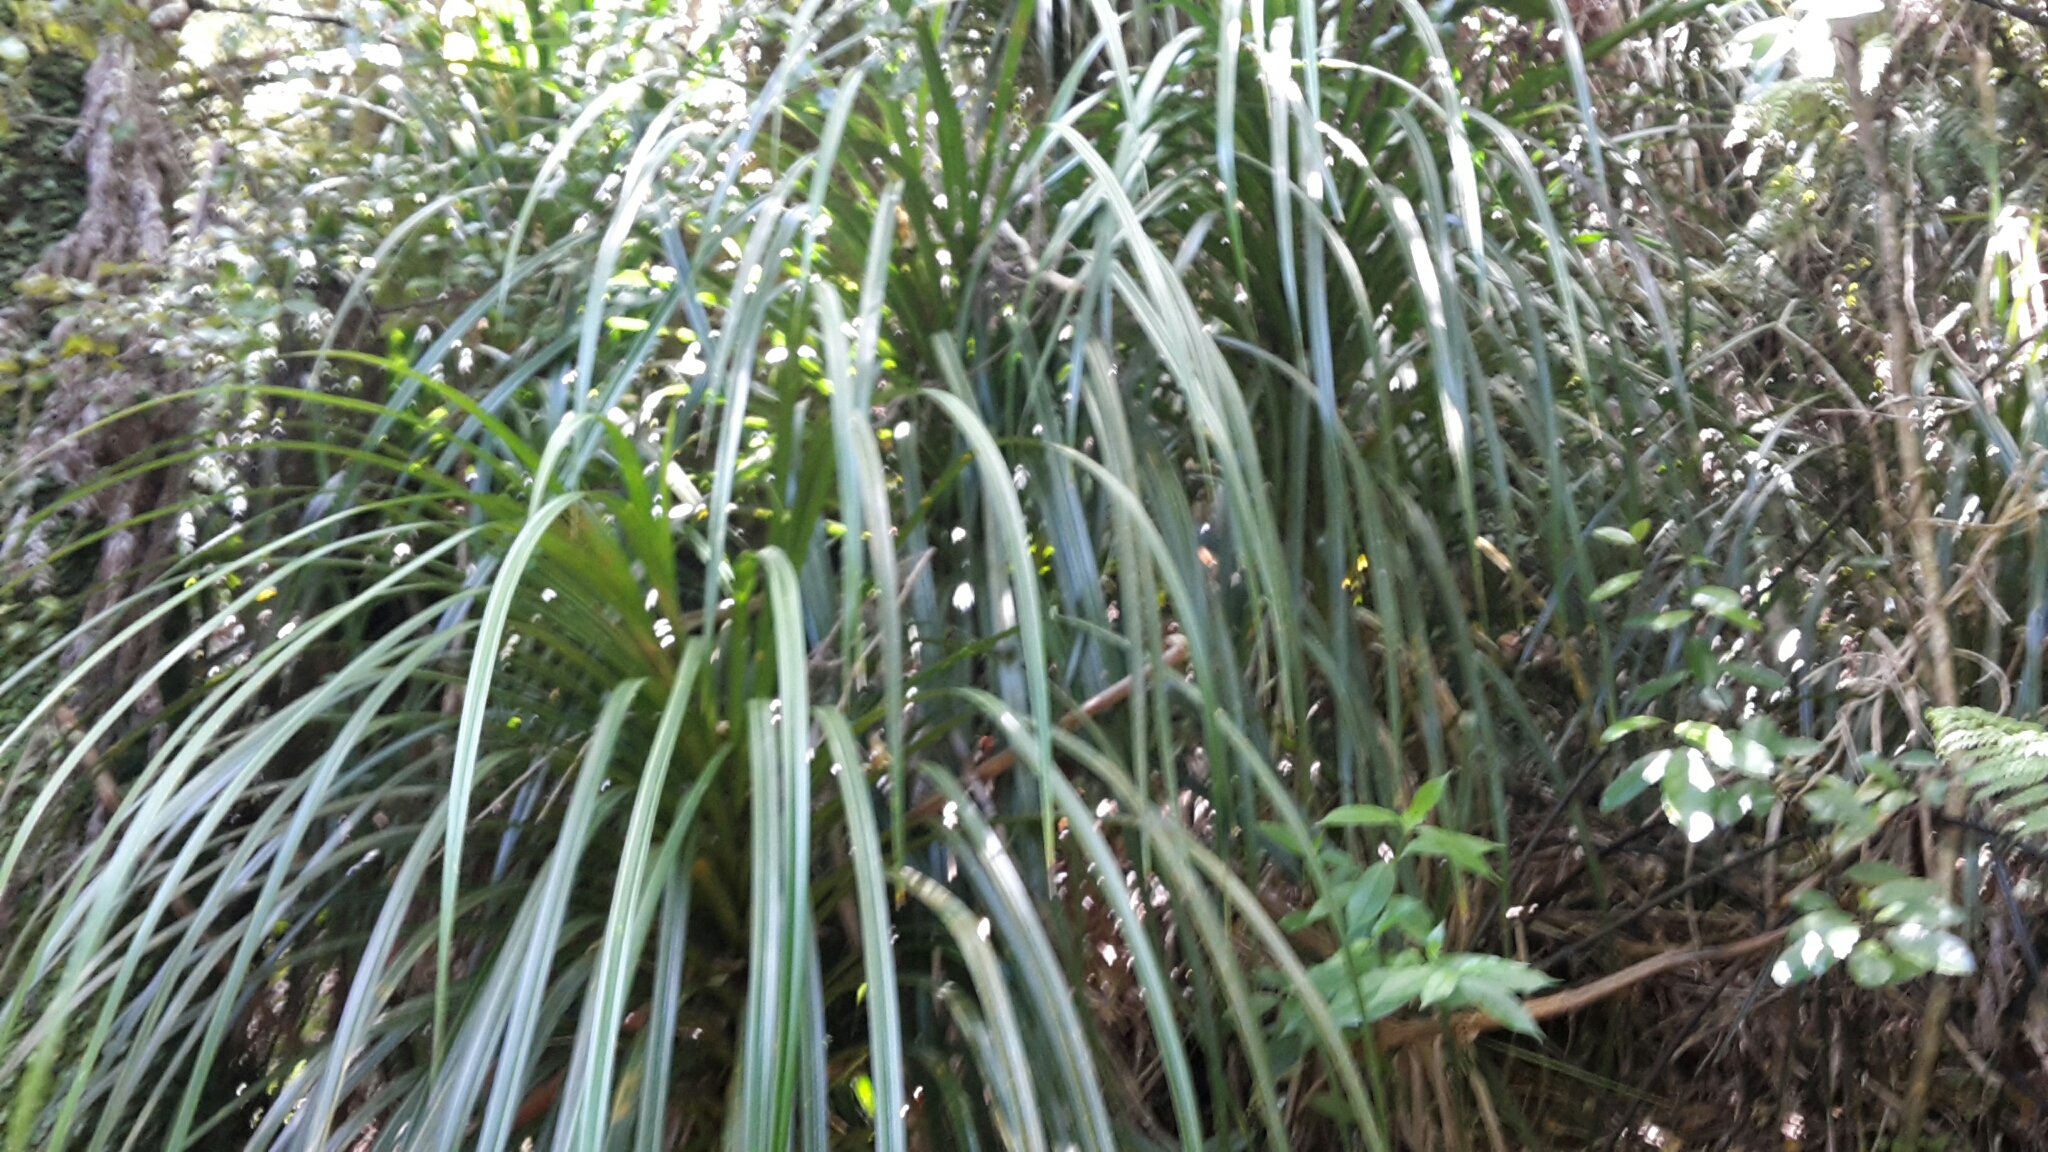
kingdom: Plantae
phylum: Tracheophyta
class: Liliopsida
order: Pandanales
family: Pandanaceae
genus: Freycinetia
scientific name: Freycinetia banksii
